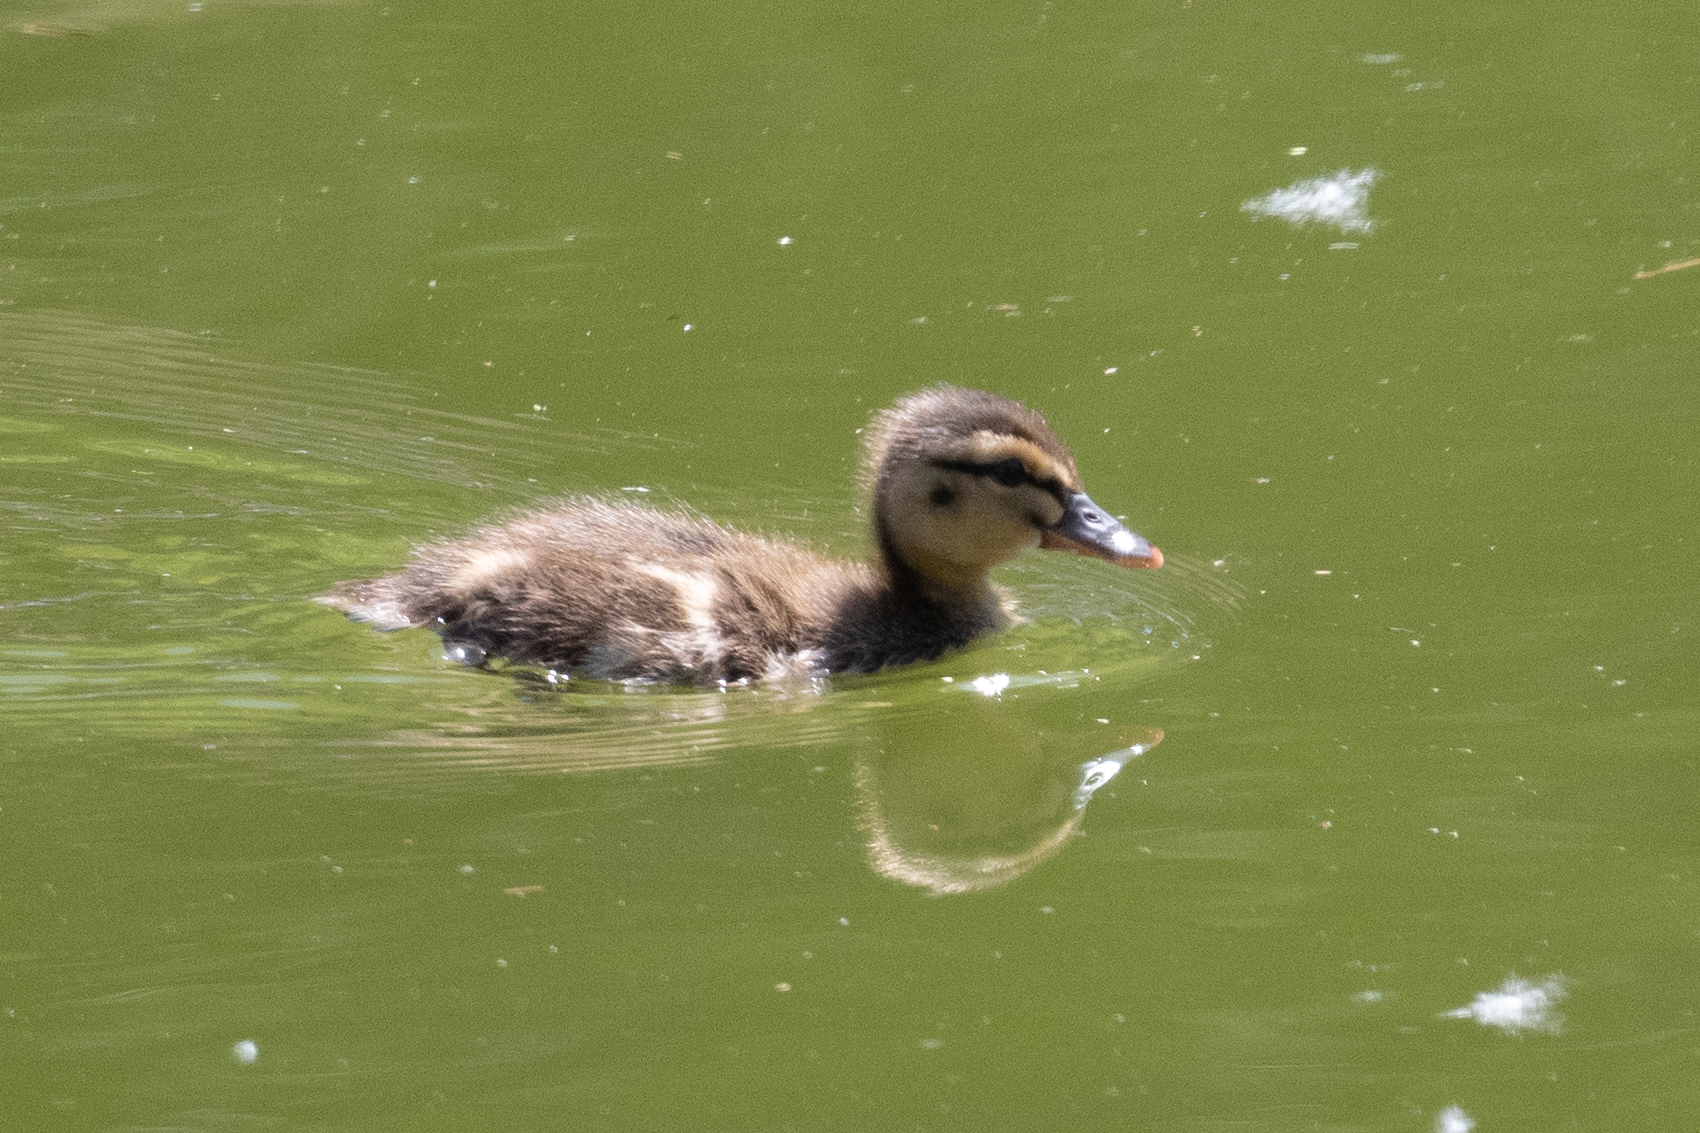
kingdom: Animalia
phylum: Chordata
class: Aves
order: Anseriformes
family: Anatidae
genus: Anas
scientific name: Anas platyrhynchos
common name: Mallard
